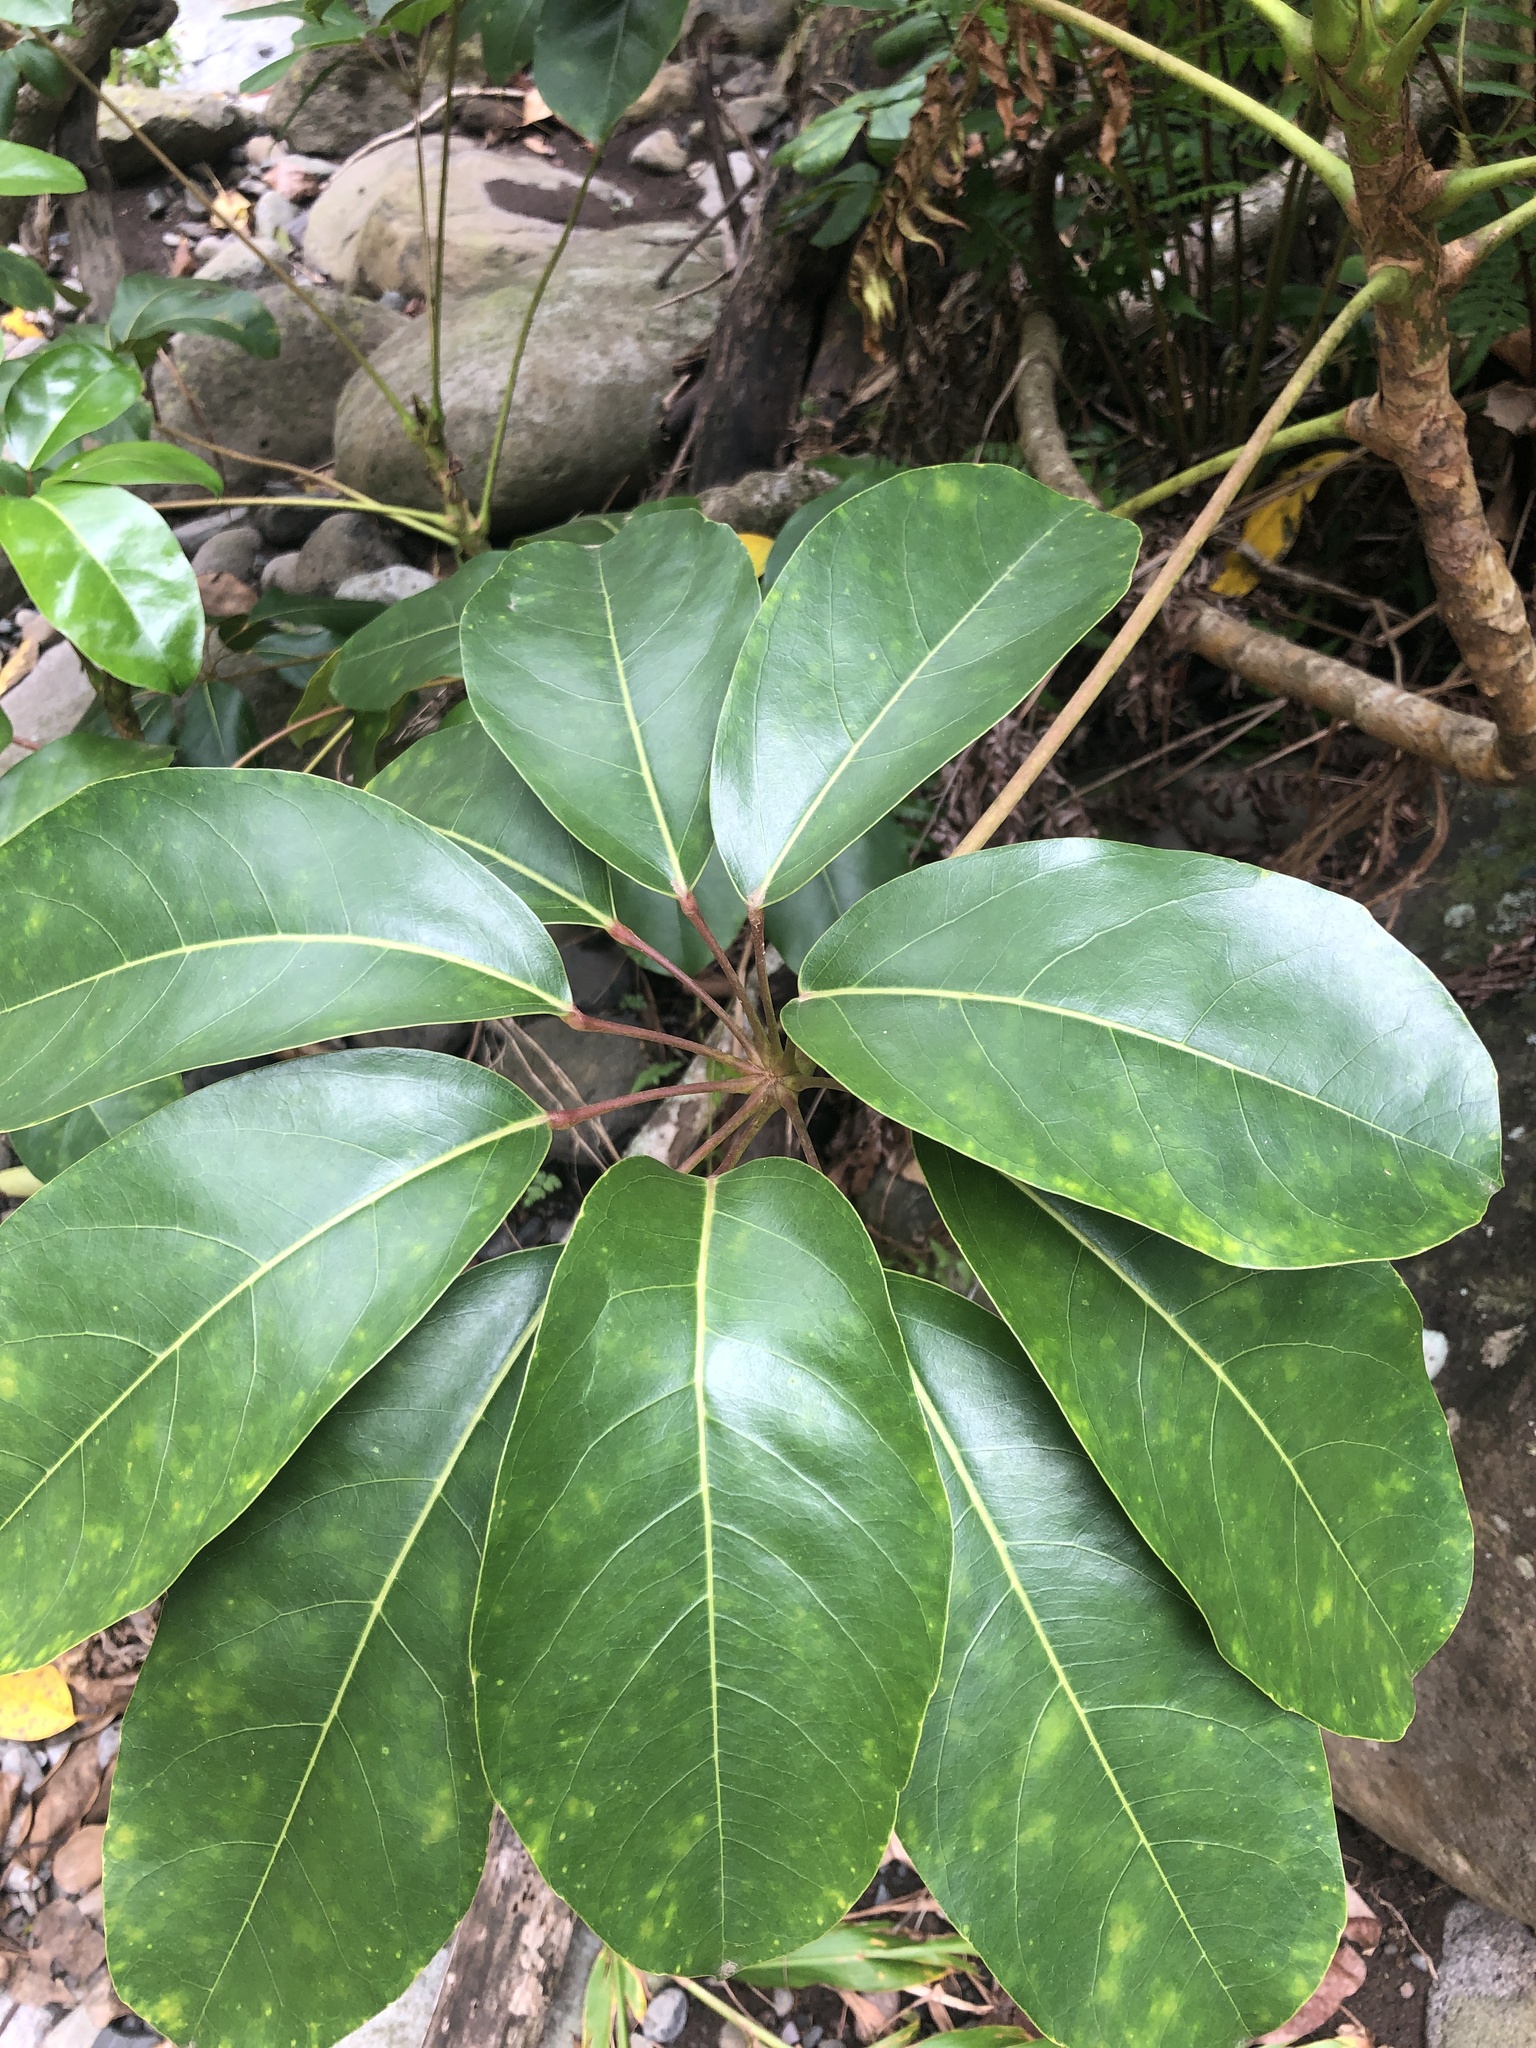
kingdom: Plantae
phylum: Tracheophyta
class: Magnoliopsida
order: Apiales
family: Araliaceae
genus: Heptapleurum
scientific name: Heptapleurum actinophyllum
